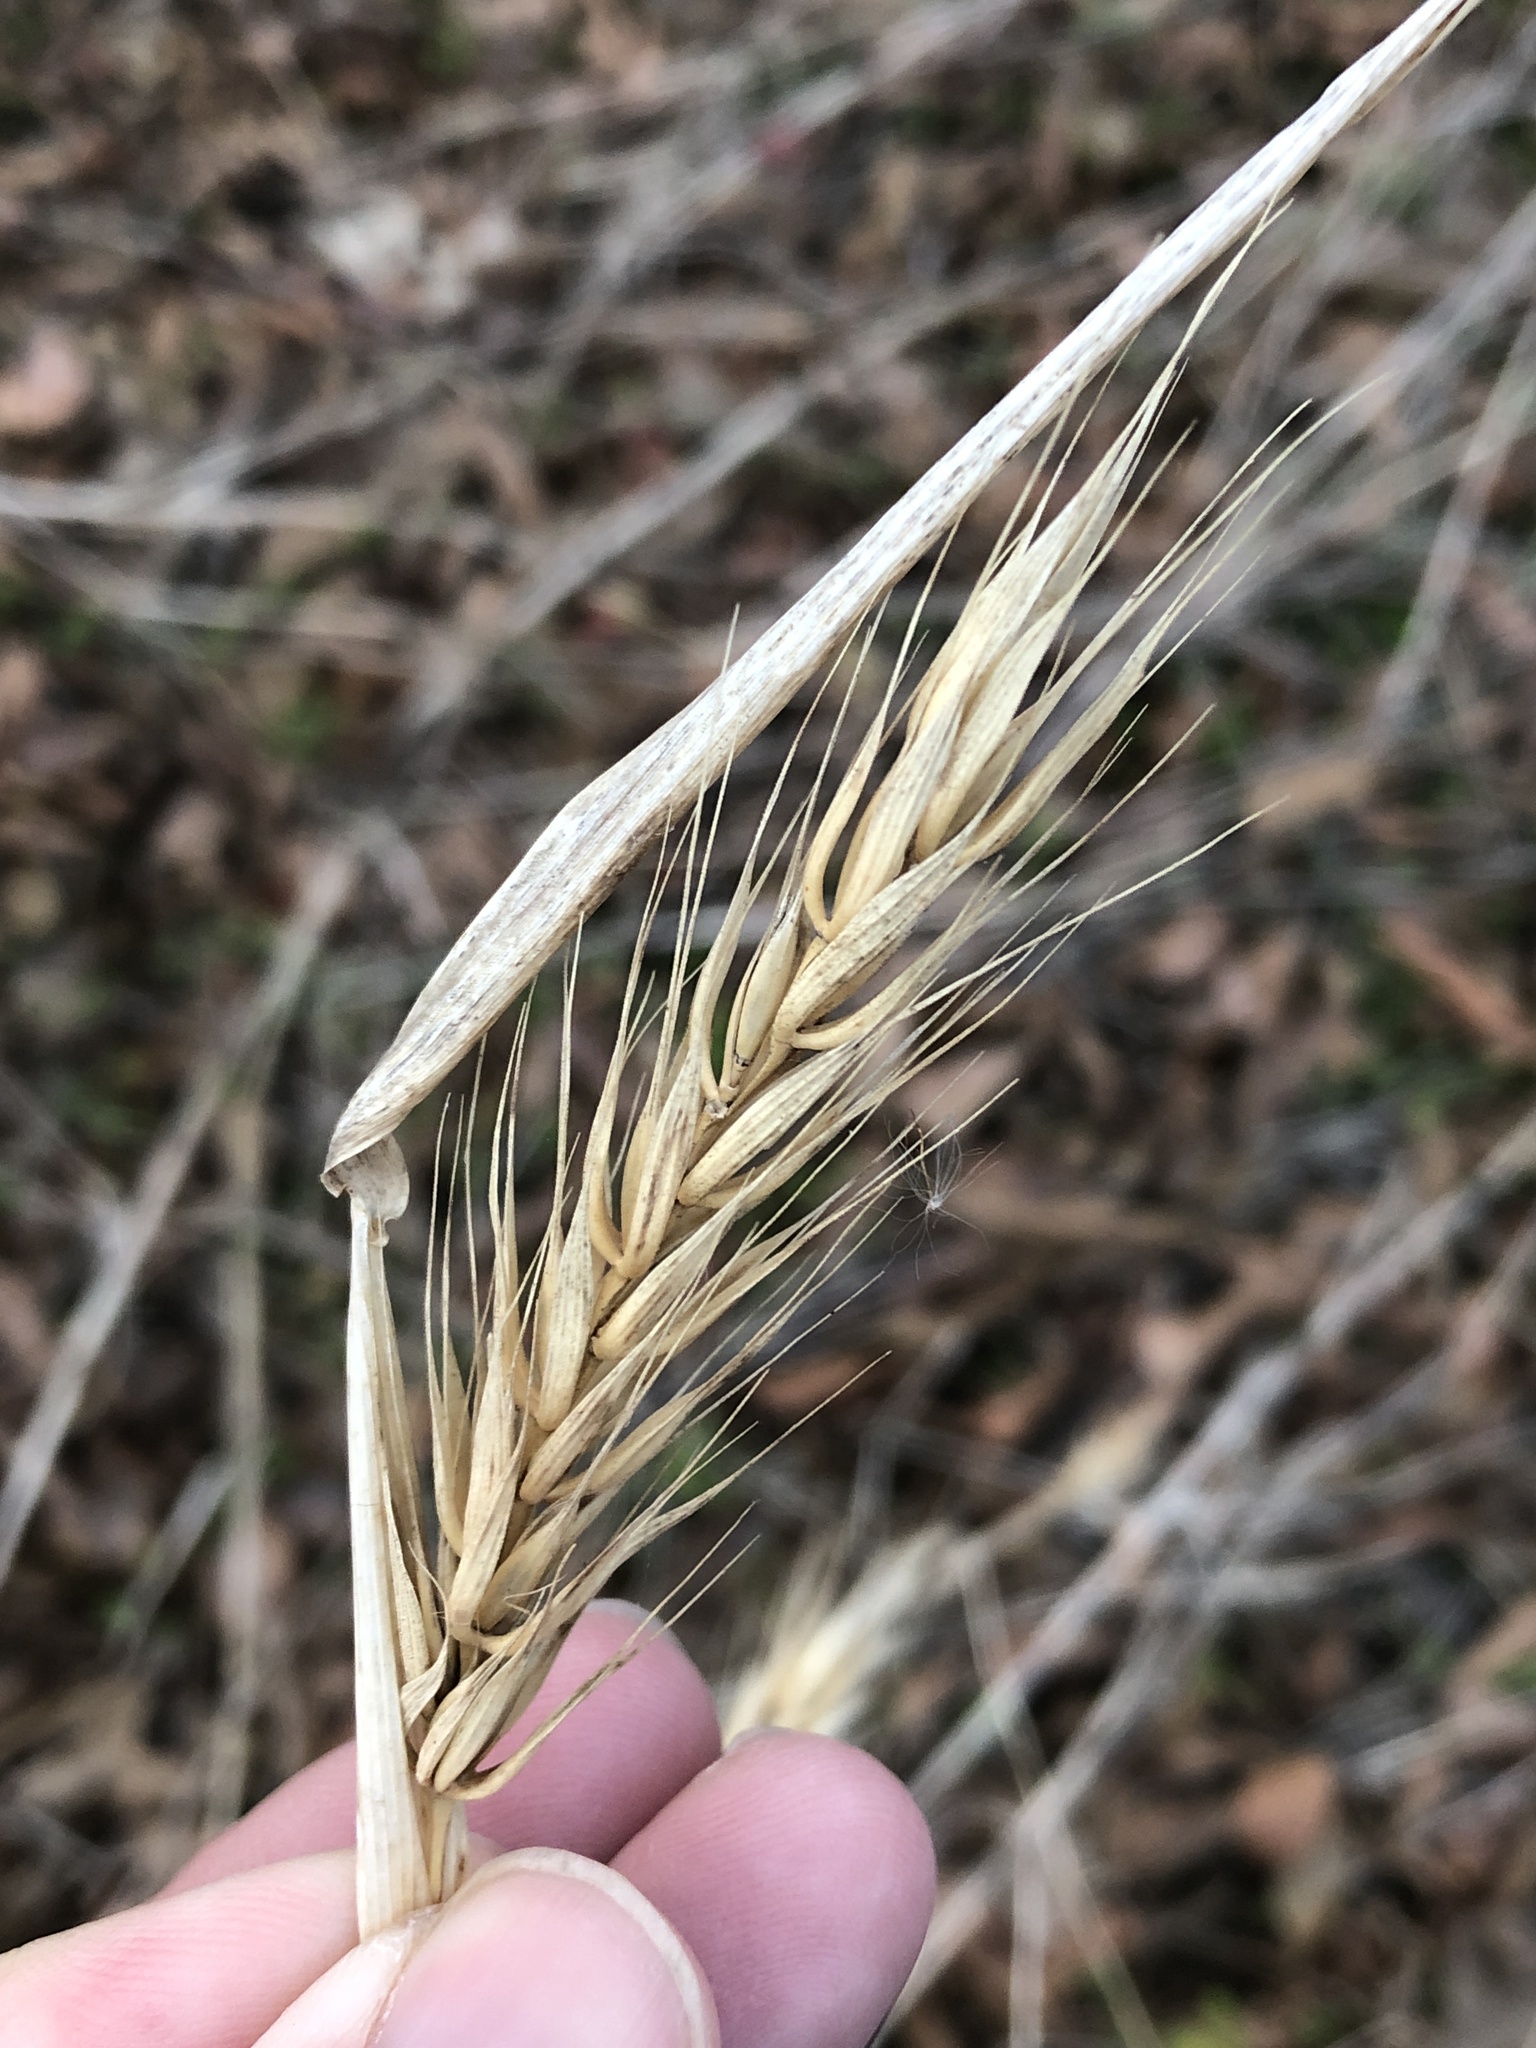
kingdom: Plantae
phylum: Tracheophyta
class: Liliopsida
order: Poales
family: Poaceae
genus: Elymus
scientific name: Elymus virginicus
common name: Common eastern wildrye
